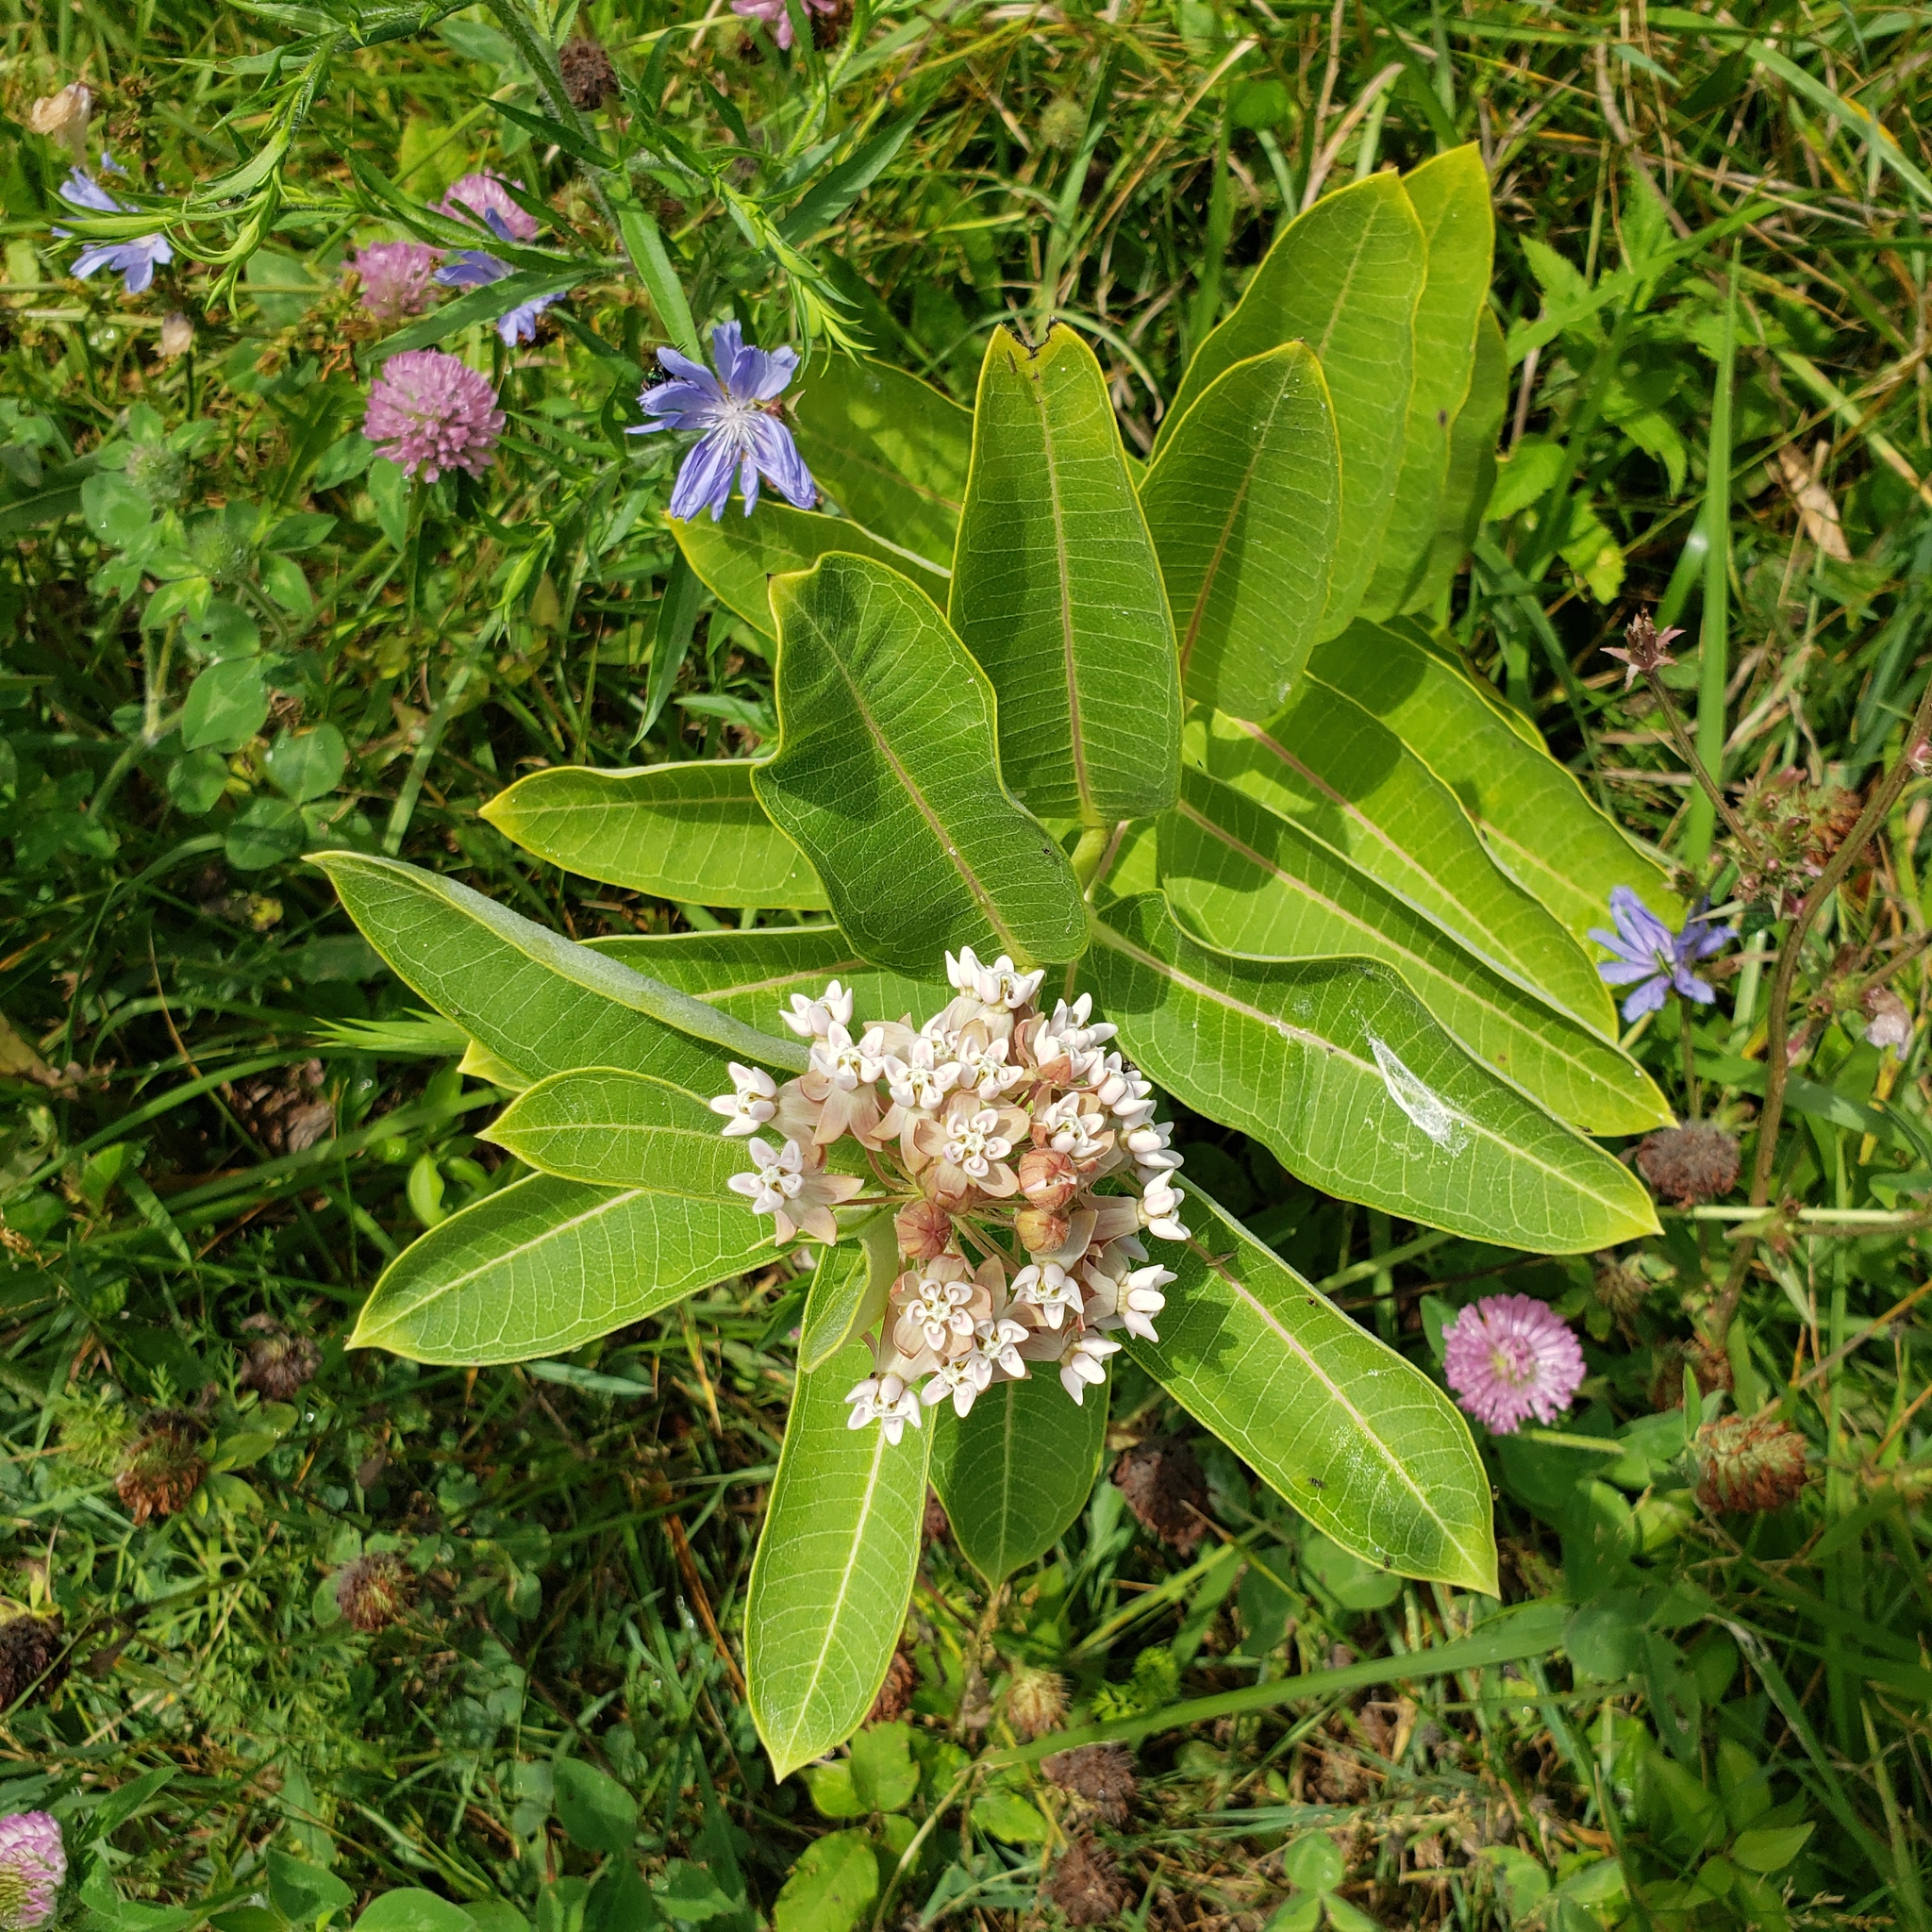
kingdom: Plantae
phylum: Tracheophyta
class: Magnoliopsida
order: Gentianales
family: Apocynaceae
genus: Asclepias
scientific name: Asclepias syriaca
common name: Common milkweed
